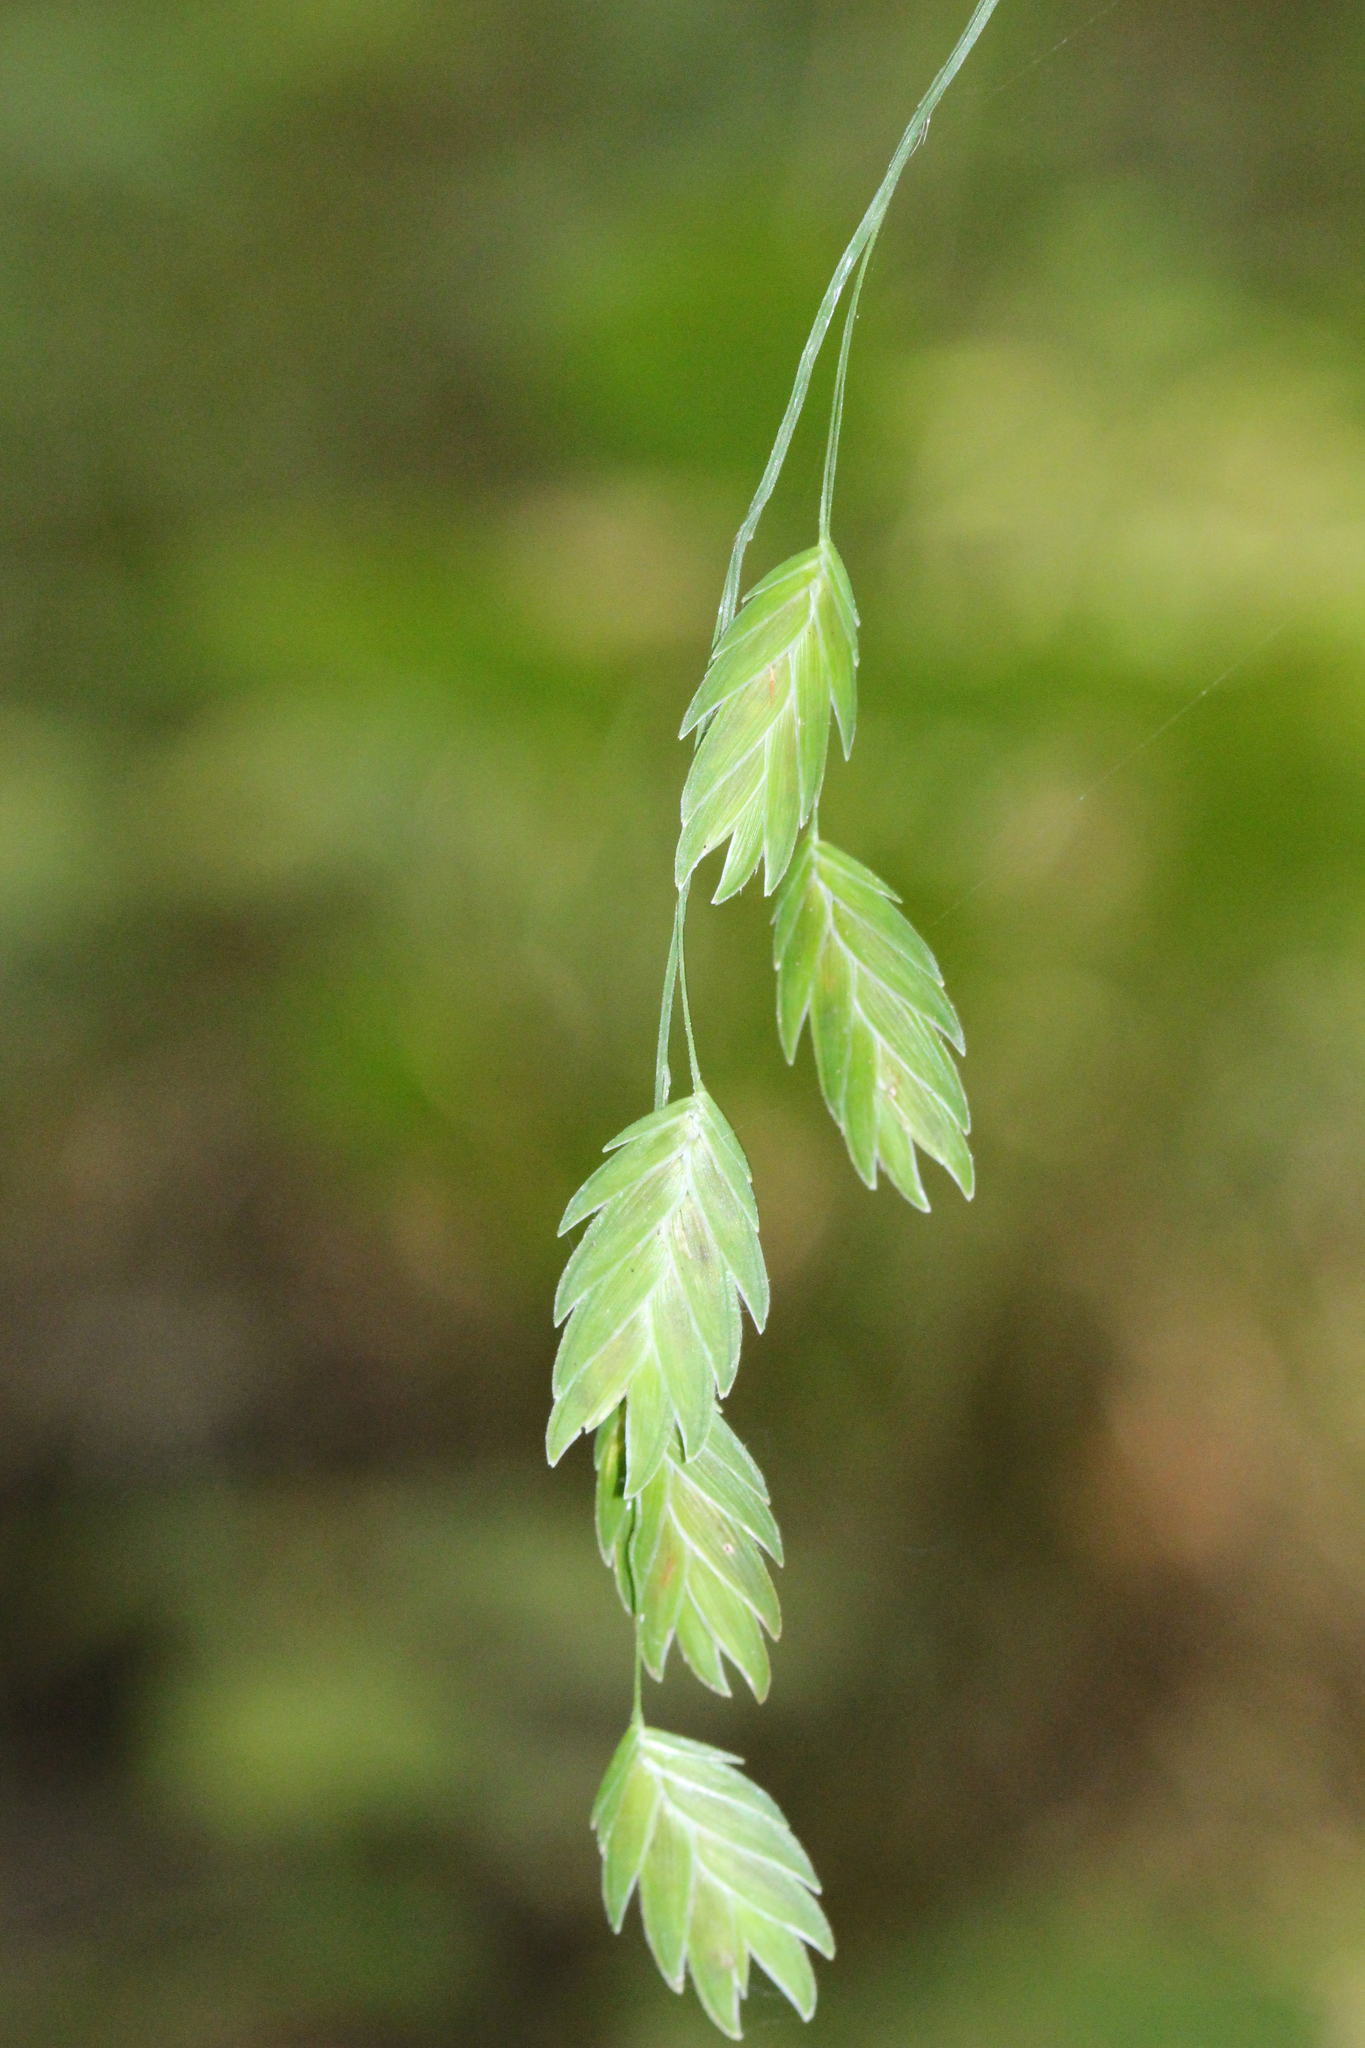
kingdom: Plantae
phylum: Tracheophyta
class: Liliopsida
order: Poales
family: Poaceae
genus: Chasmanthium
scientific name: Chasmanthium latifolium
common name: Broad-leaved chasmanthium
